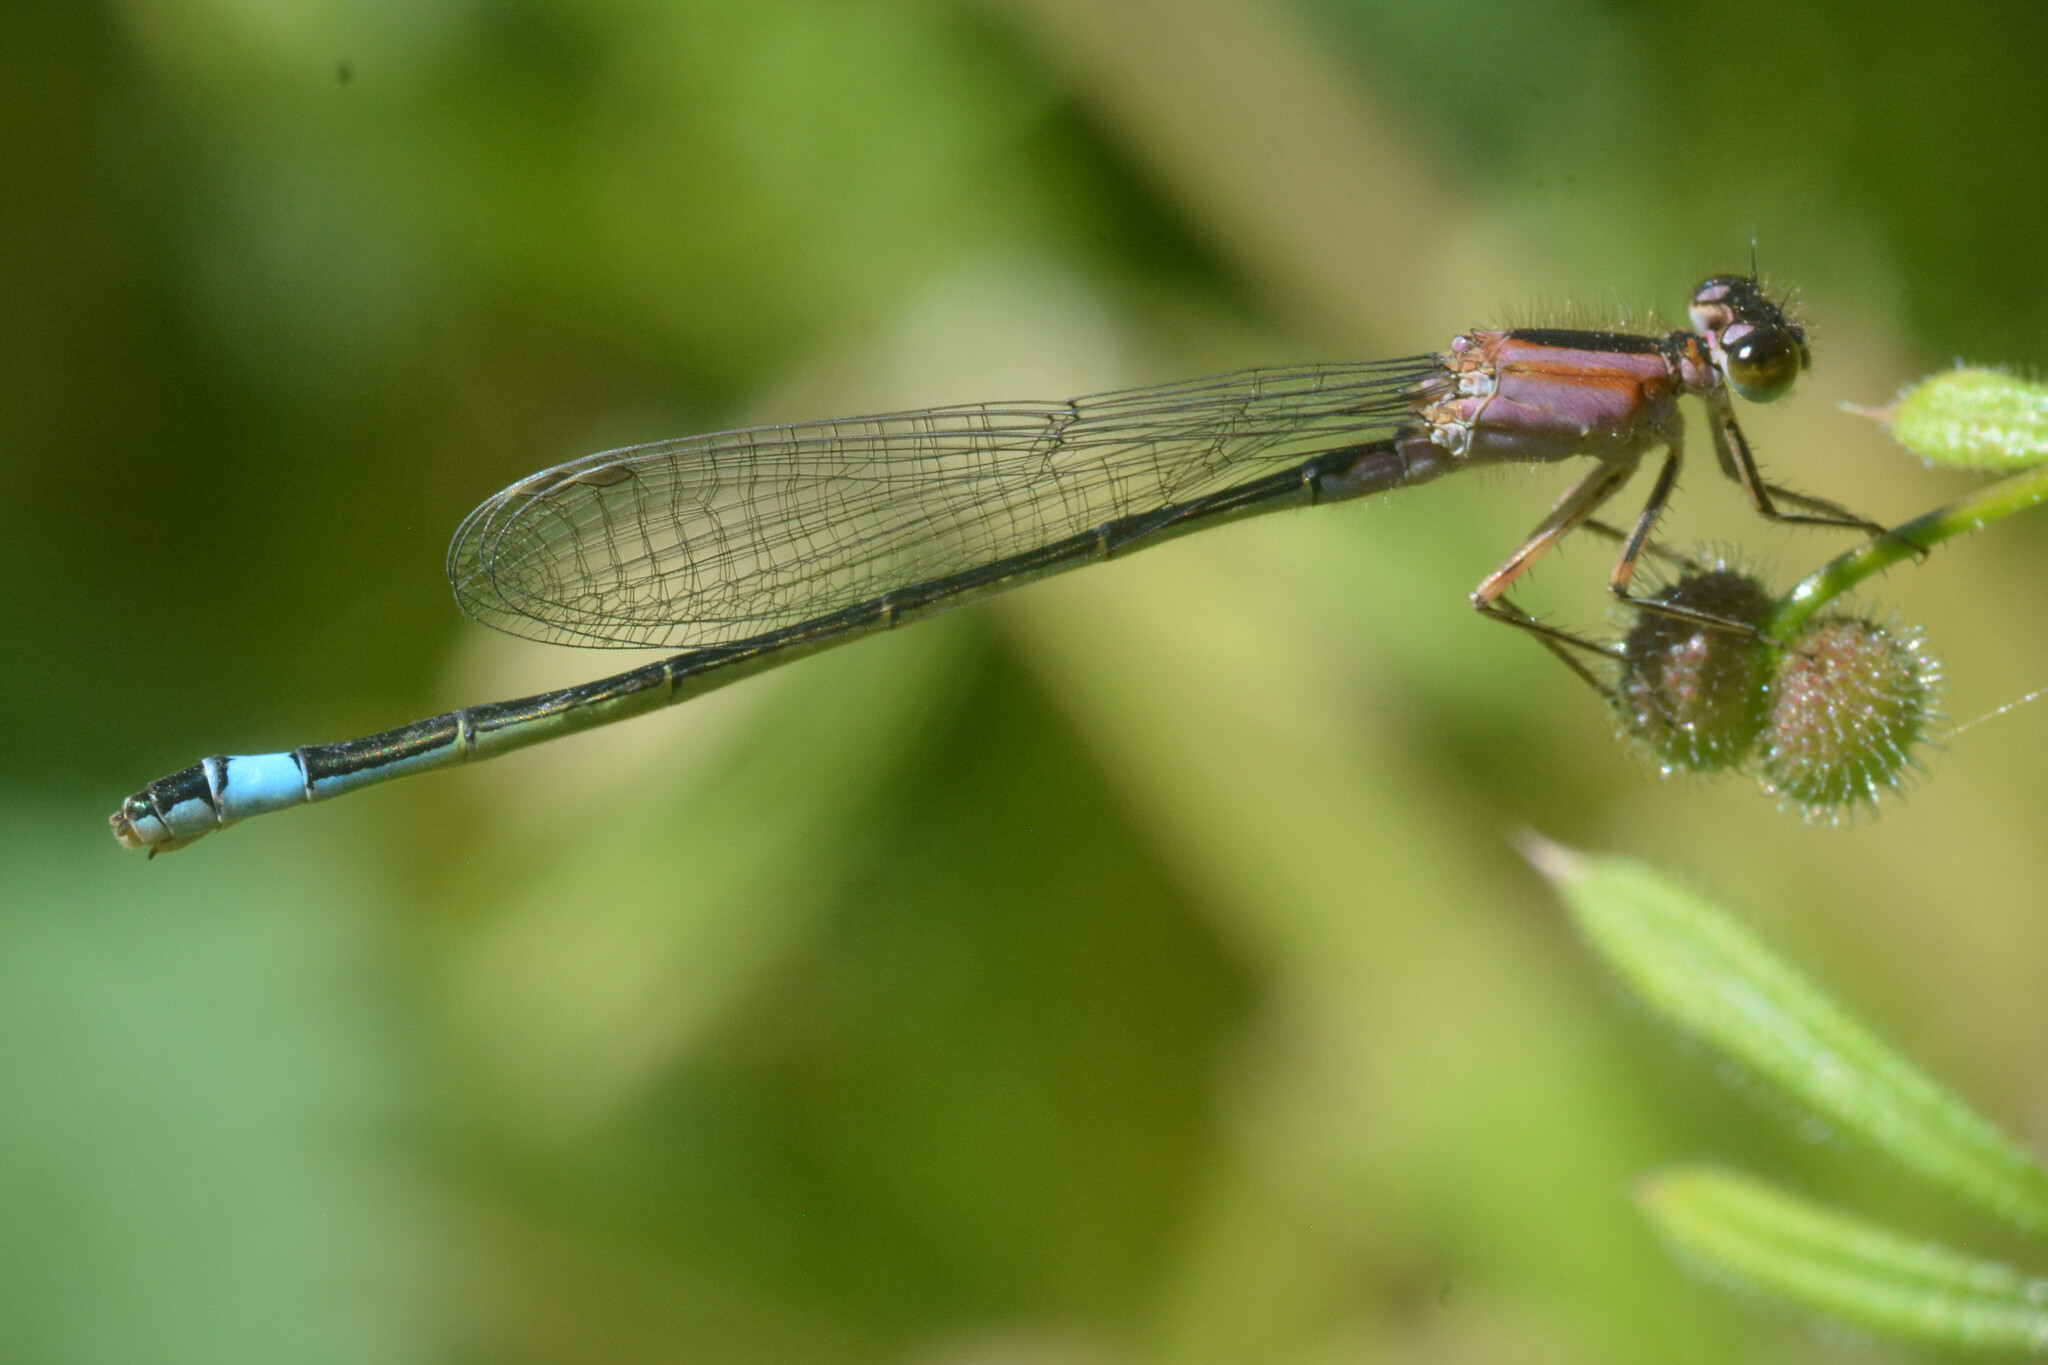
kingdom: Animalia
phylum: Arthropoda
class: Insecta
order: Odonata
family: Coenagrionidae
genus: Ischnura
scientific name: Ischnura elegans
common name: Blue-tailed damselfly
